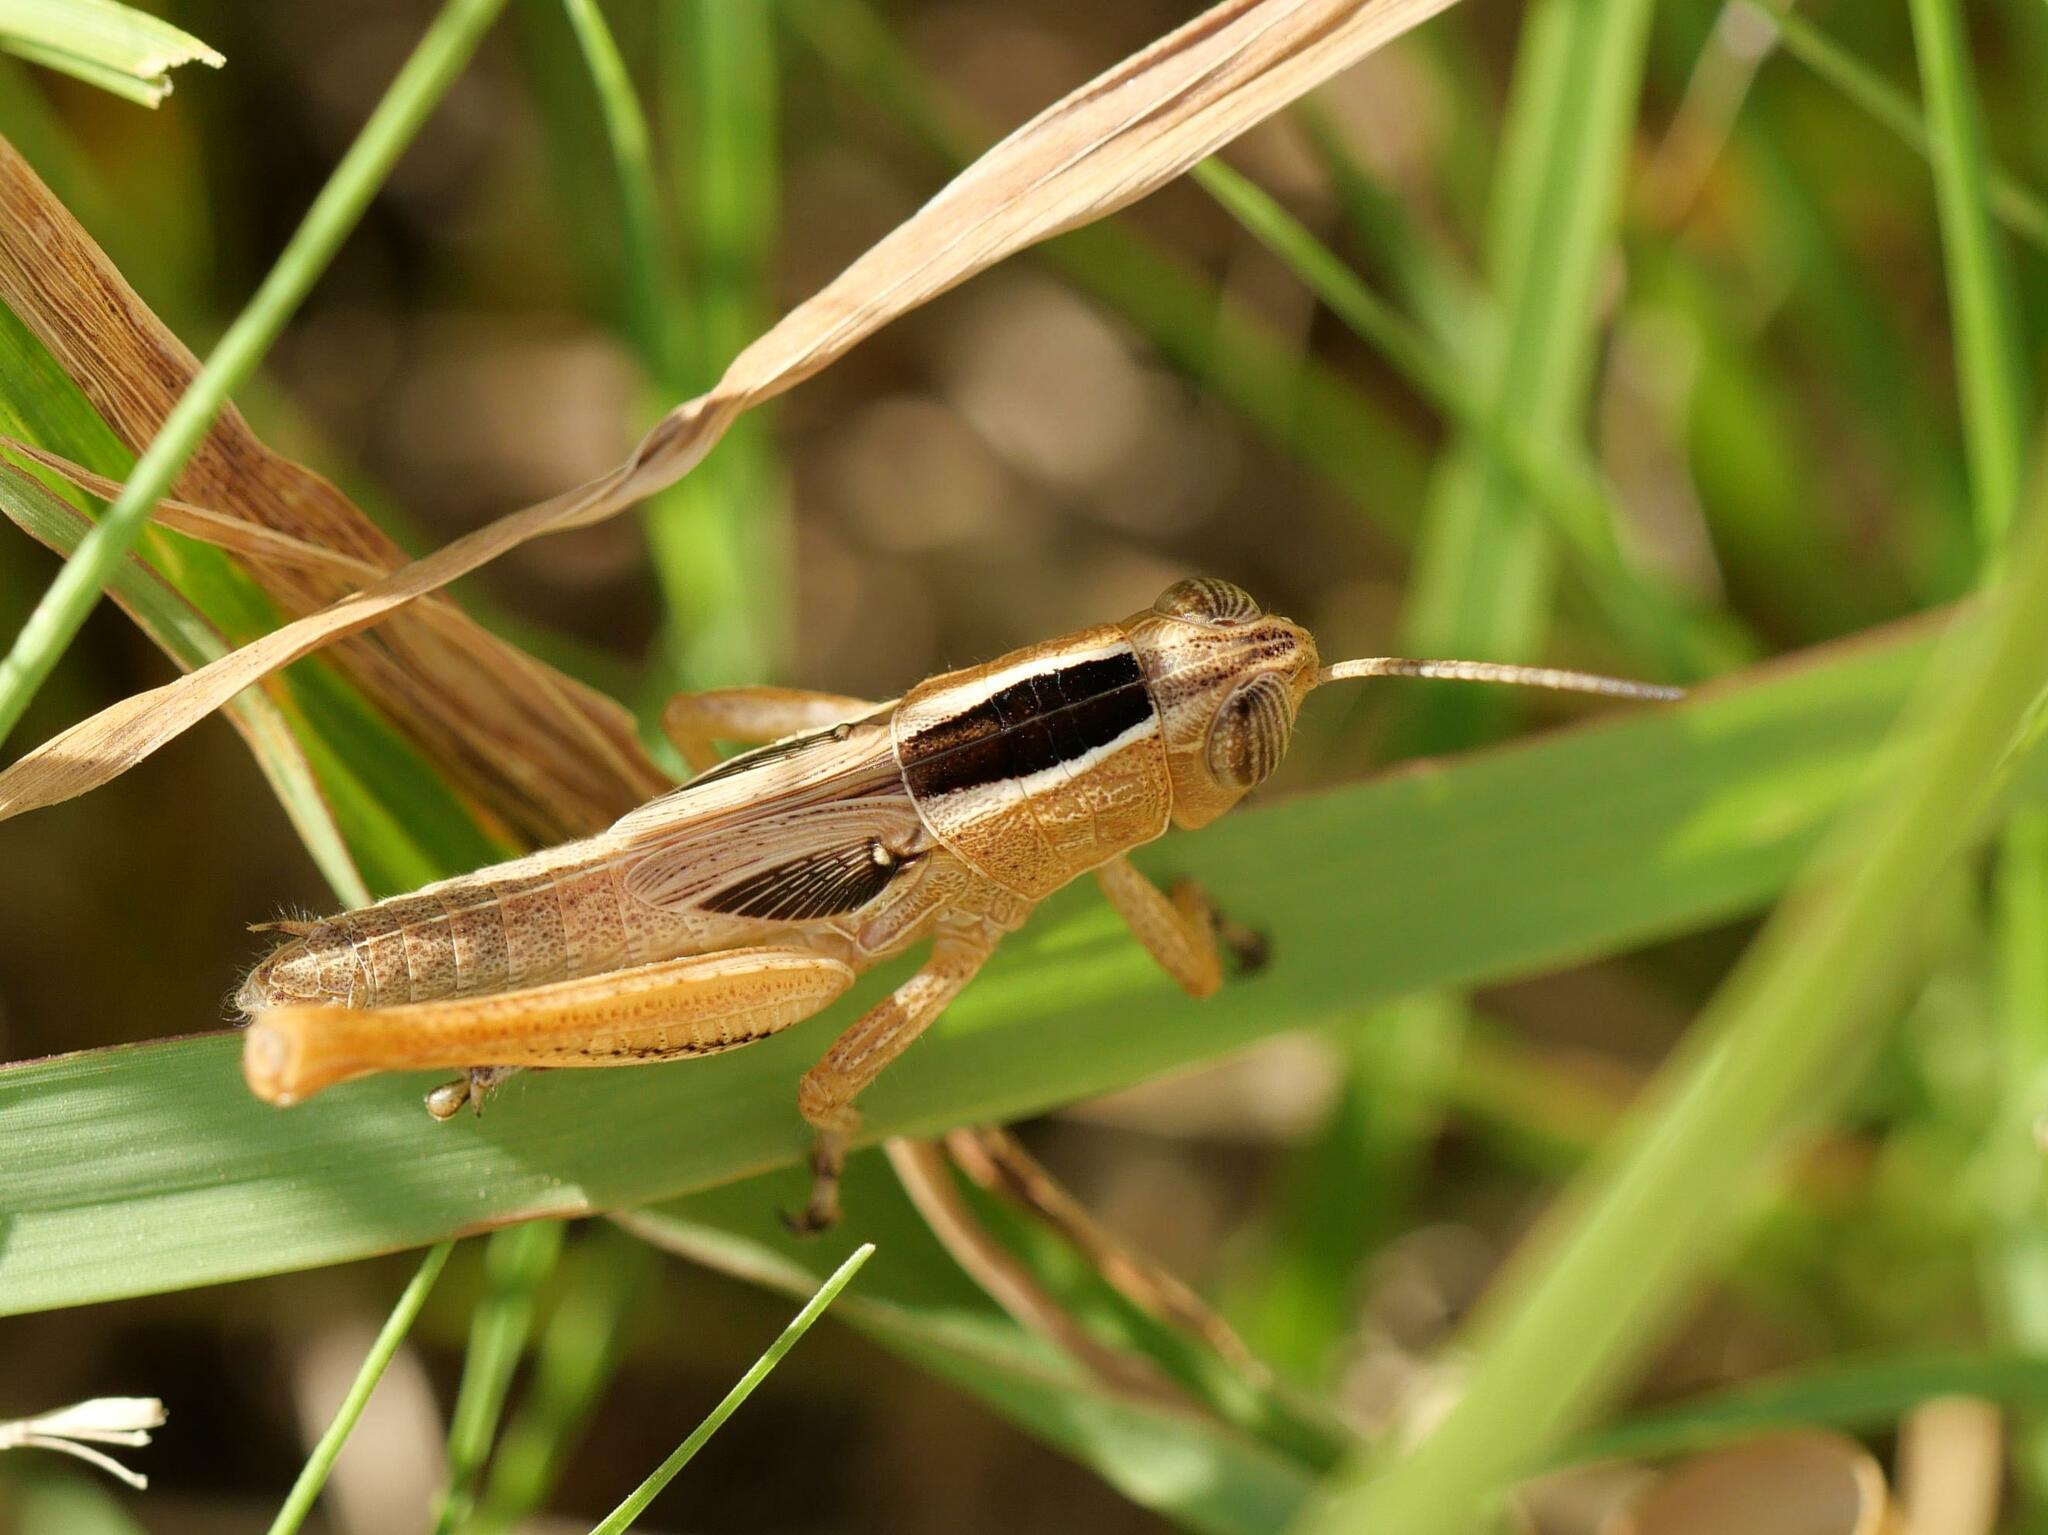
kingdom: Animalia
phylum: Arthropoda
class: Insecta
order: Orthoptera
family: Acrididae
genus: Eyprepocnemis
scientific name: Eyprepocnemis plorans
